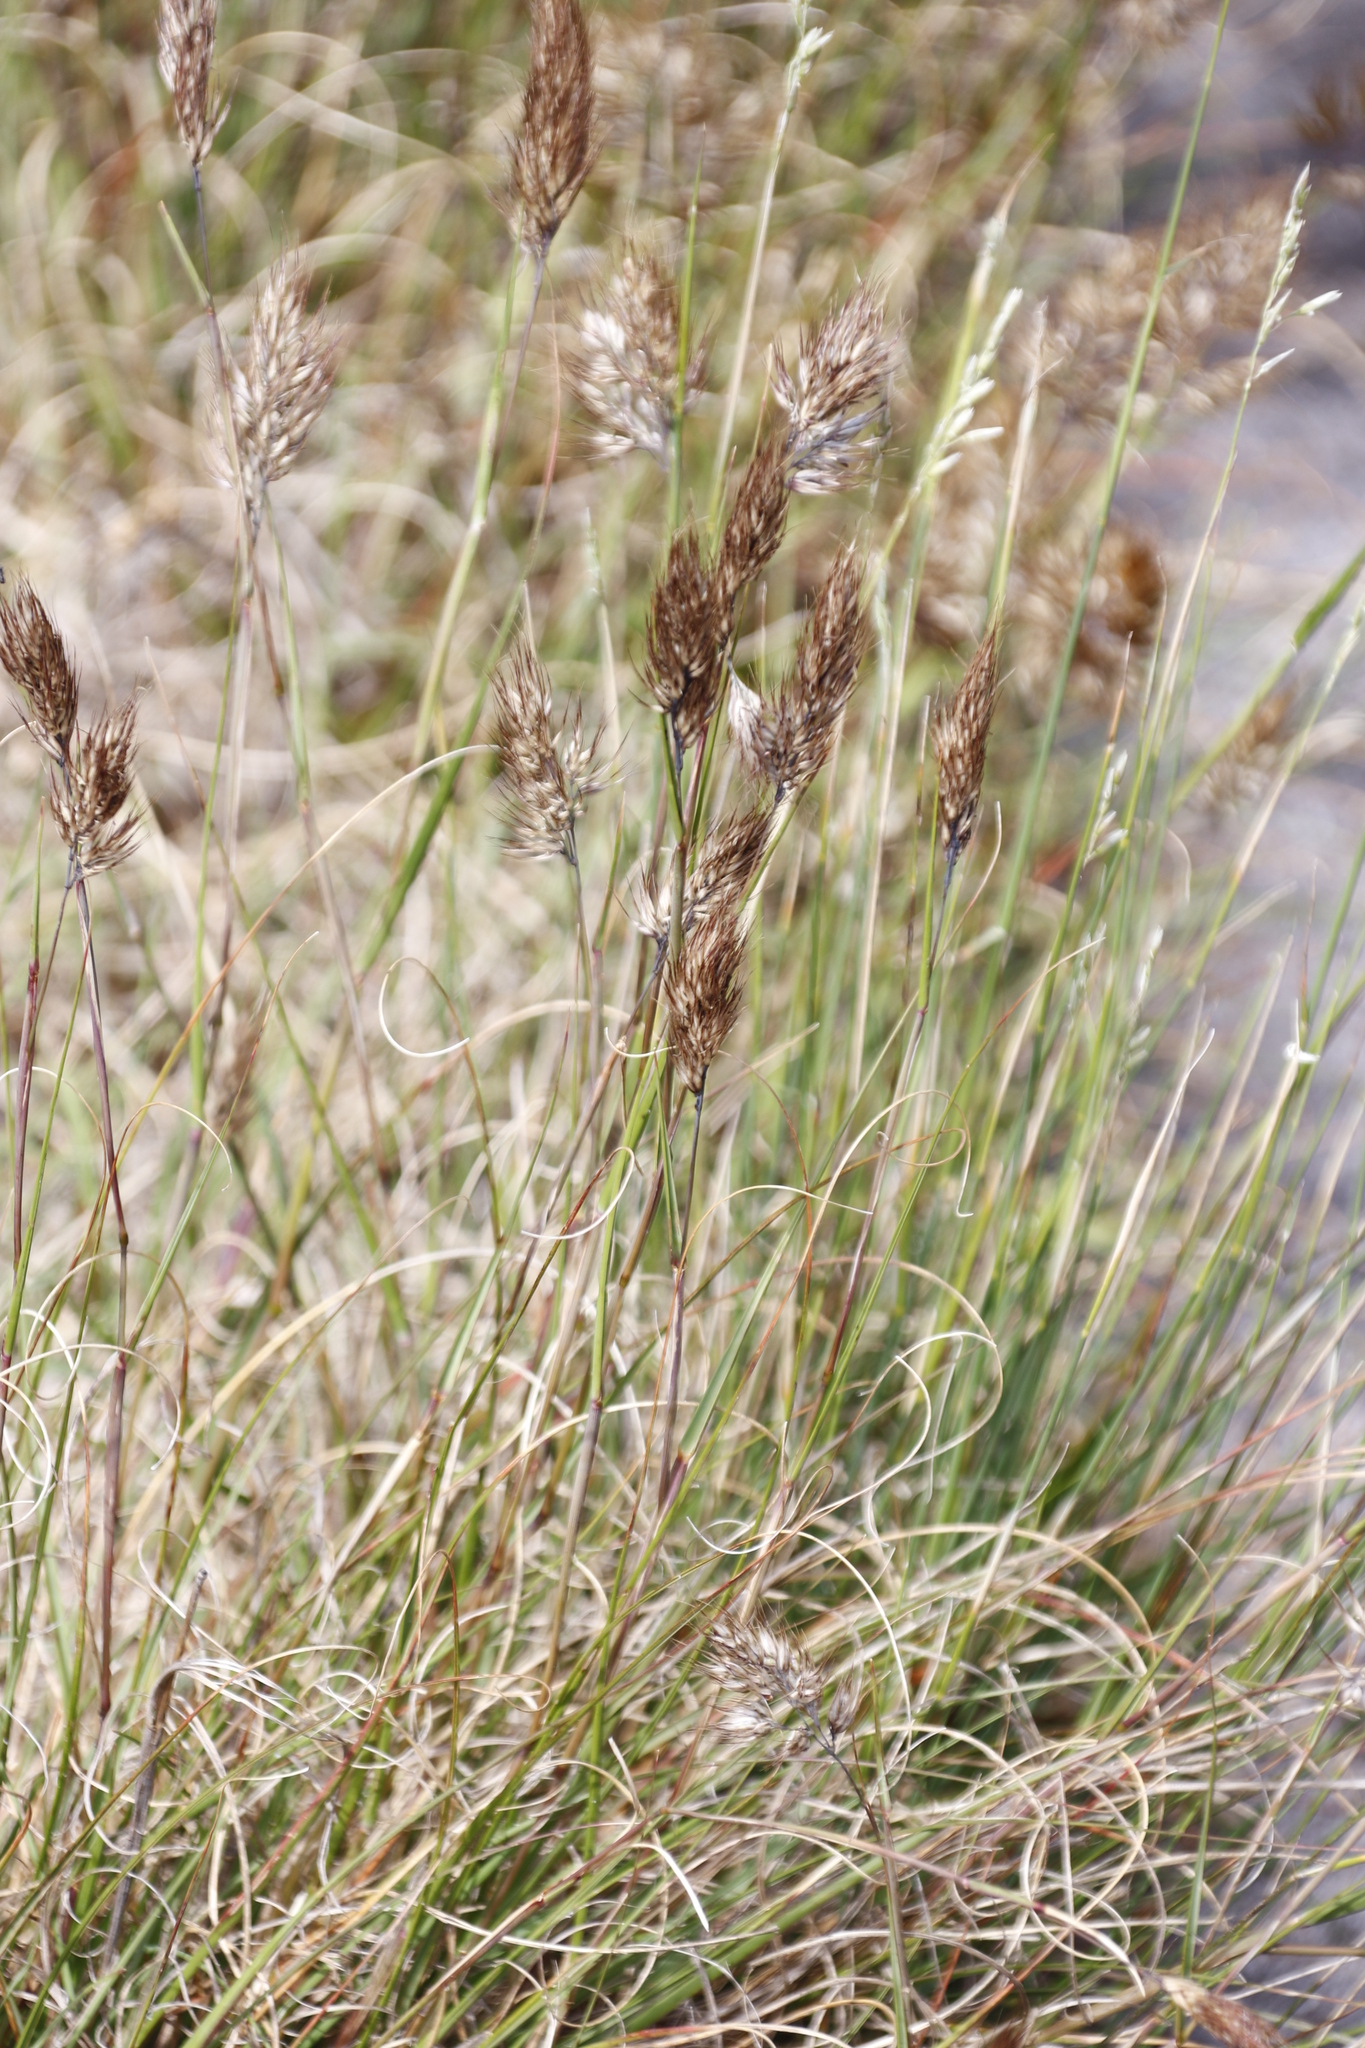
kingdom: Plantae
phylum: Tracheophyta
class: Liliopsida
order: Poales
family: Poaceae
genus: Pentameris
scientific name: Pentameris curvifolia
